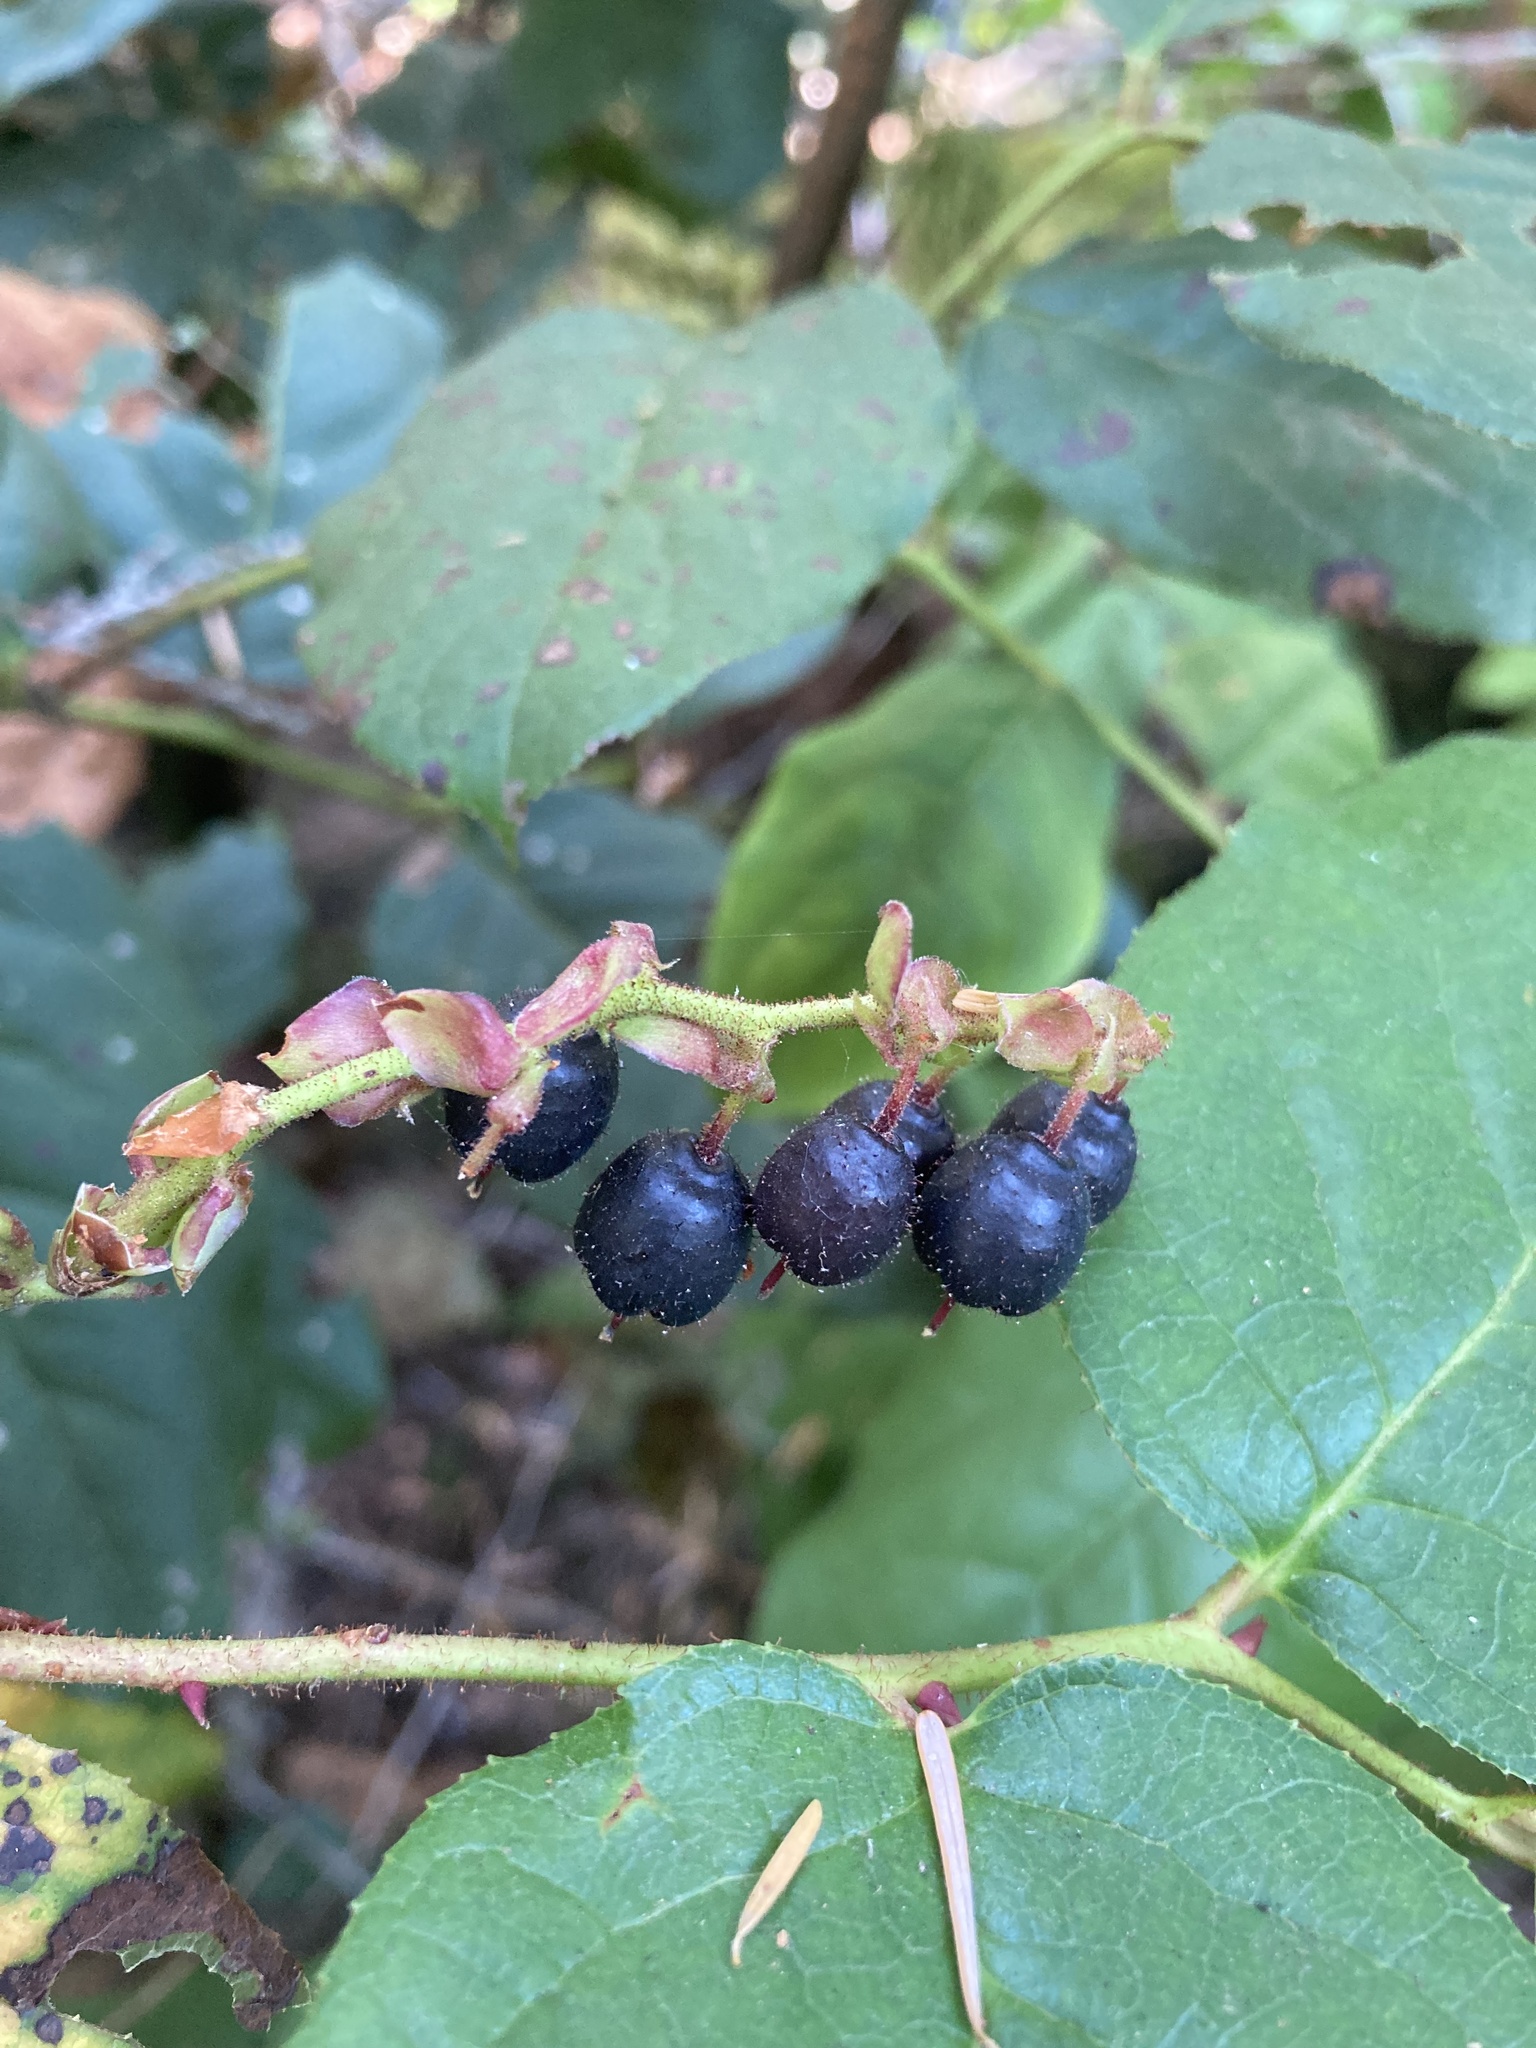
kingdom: Plantae
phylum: Tracheophyta
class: Magnoliopsida
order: Ericales
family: Ericaceae
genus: Gaultheria
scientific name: Gaultheria shallon
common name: Shallon
